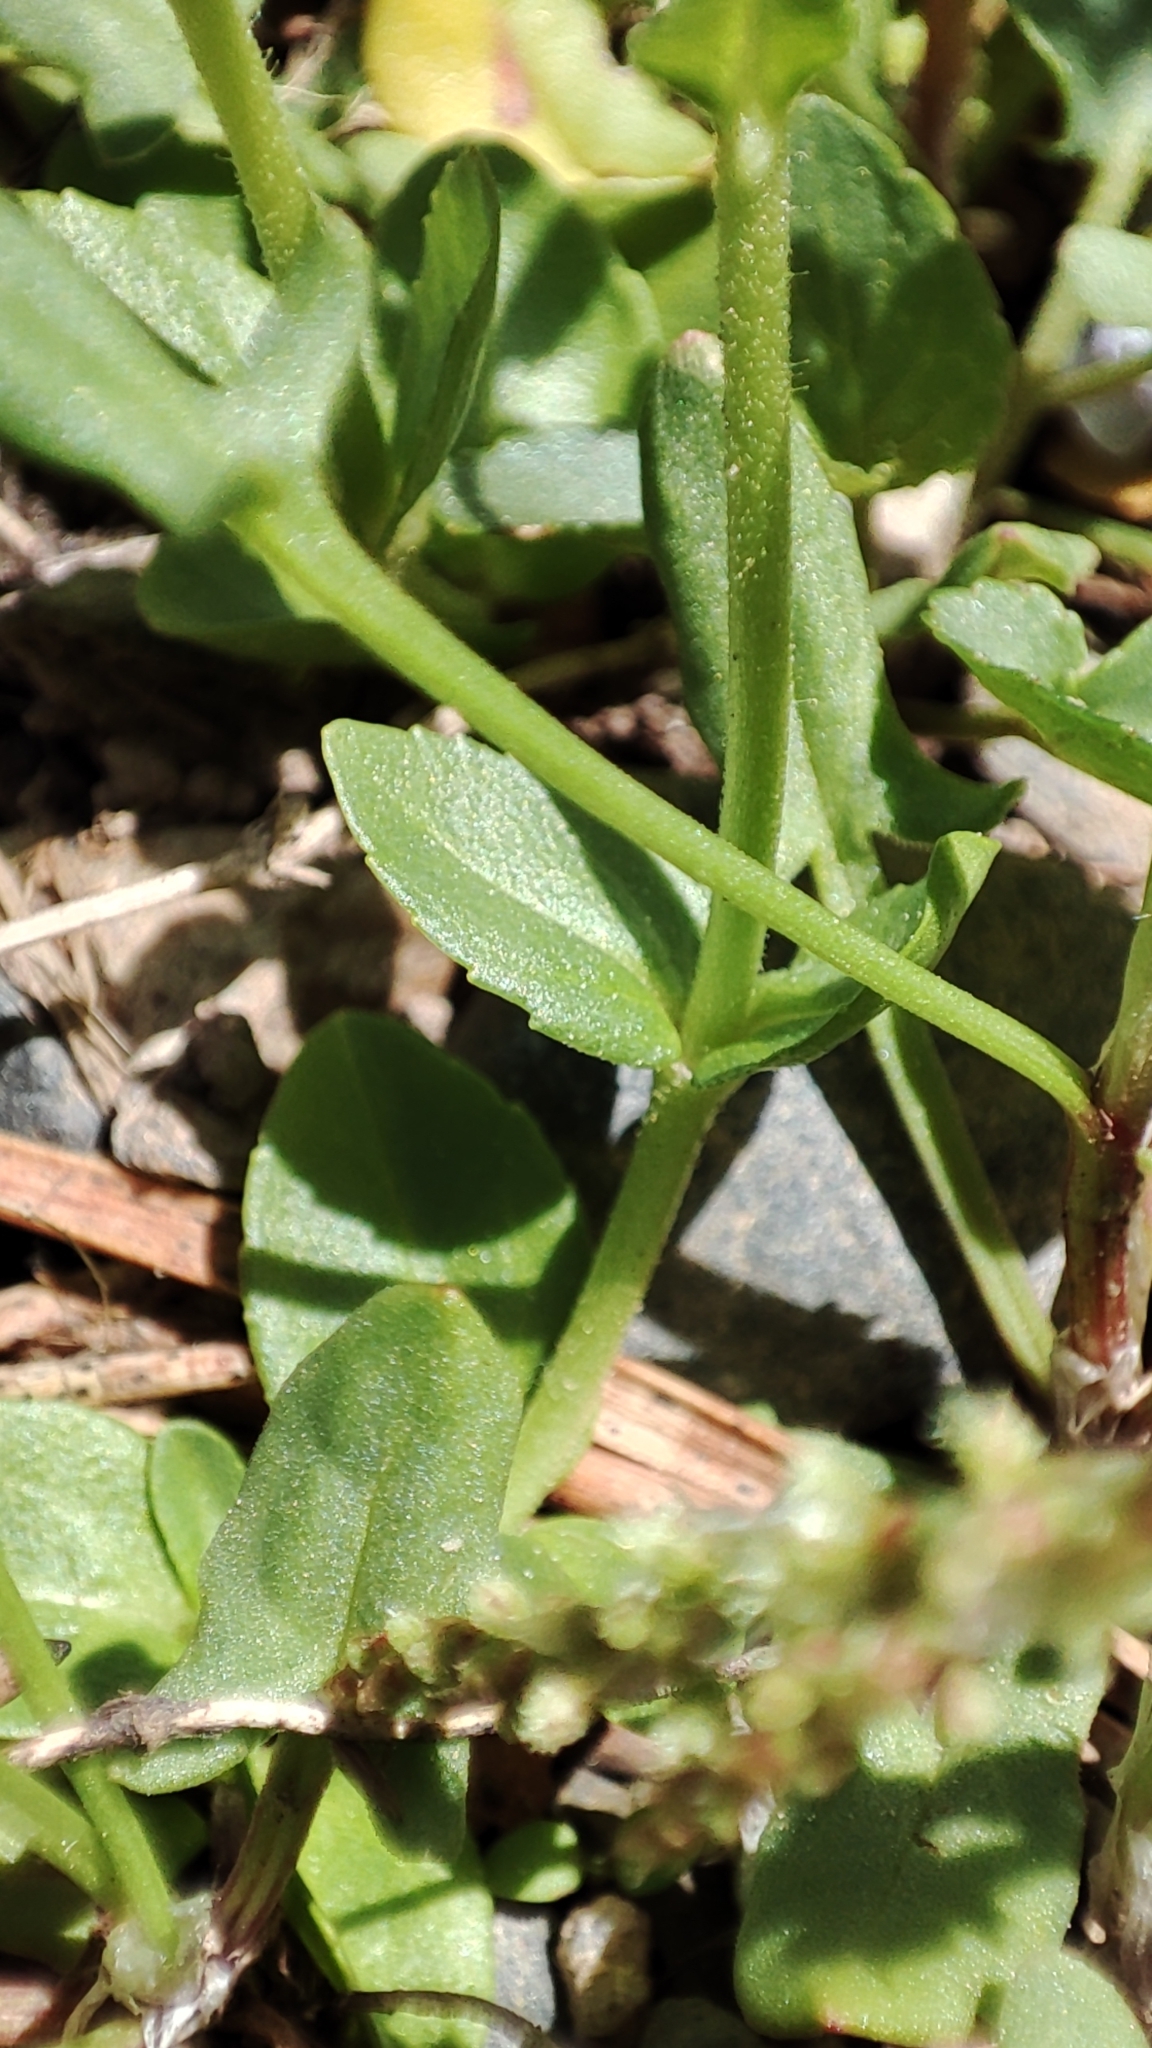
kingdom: Plantae
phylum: Tracheophyta
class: Magnoliopsida
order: Lamiales
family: Plantaginaceae
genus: Veronica
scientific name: Veronica serpyllifolia
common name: Thyme-leaved speedwell
